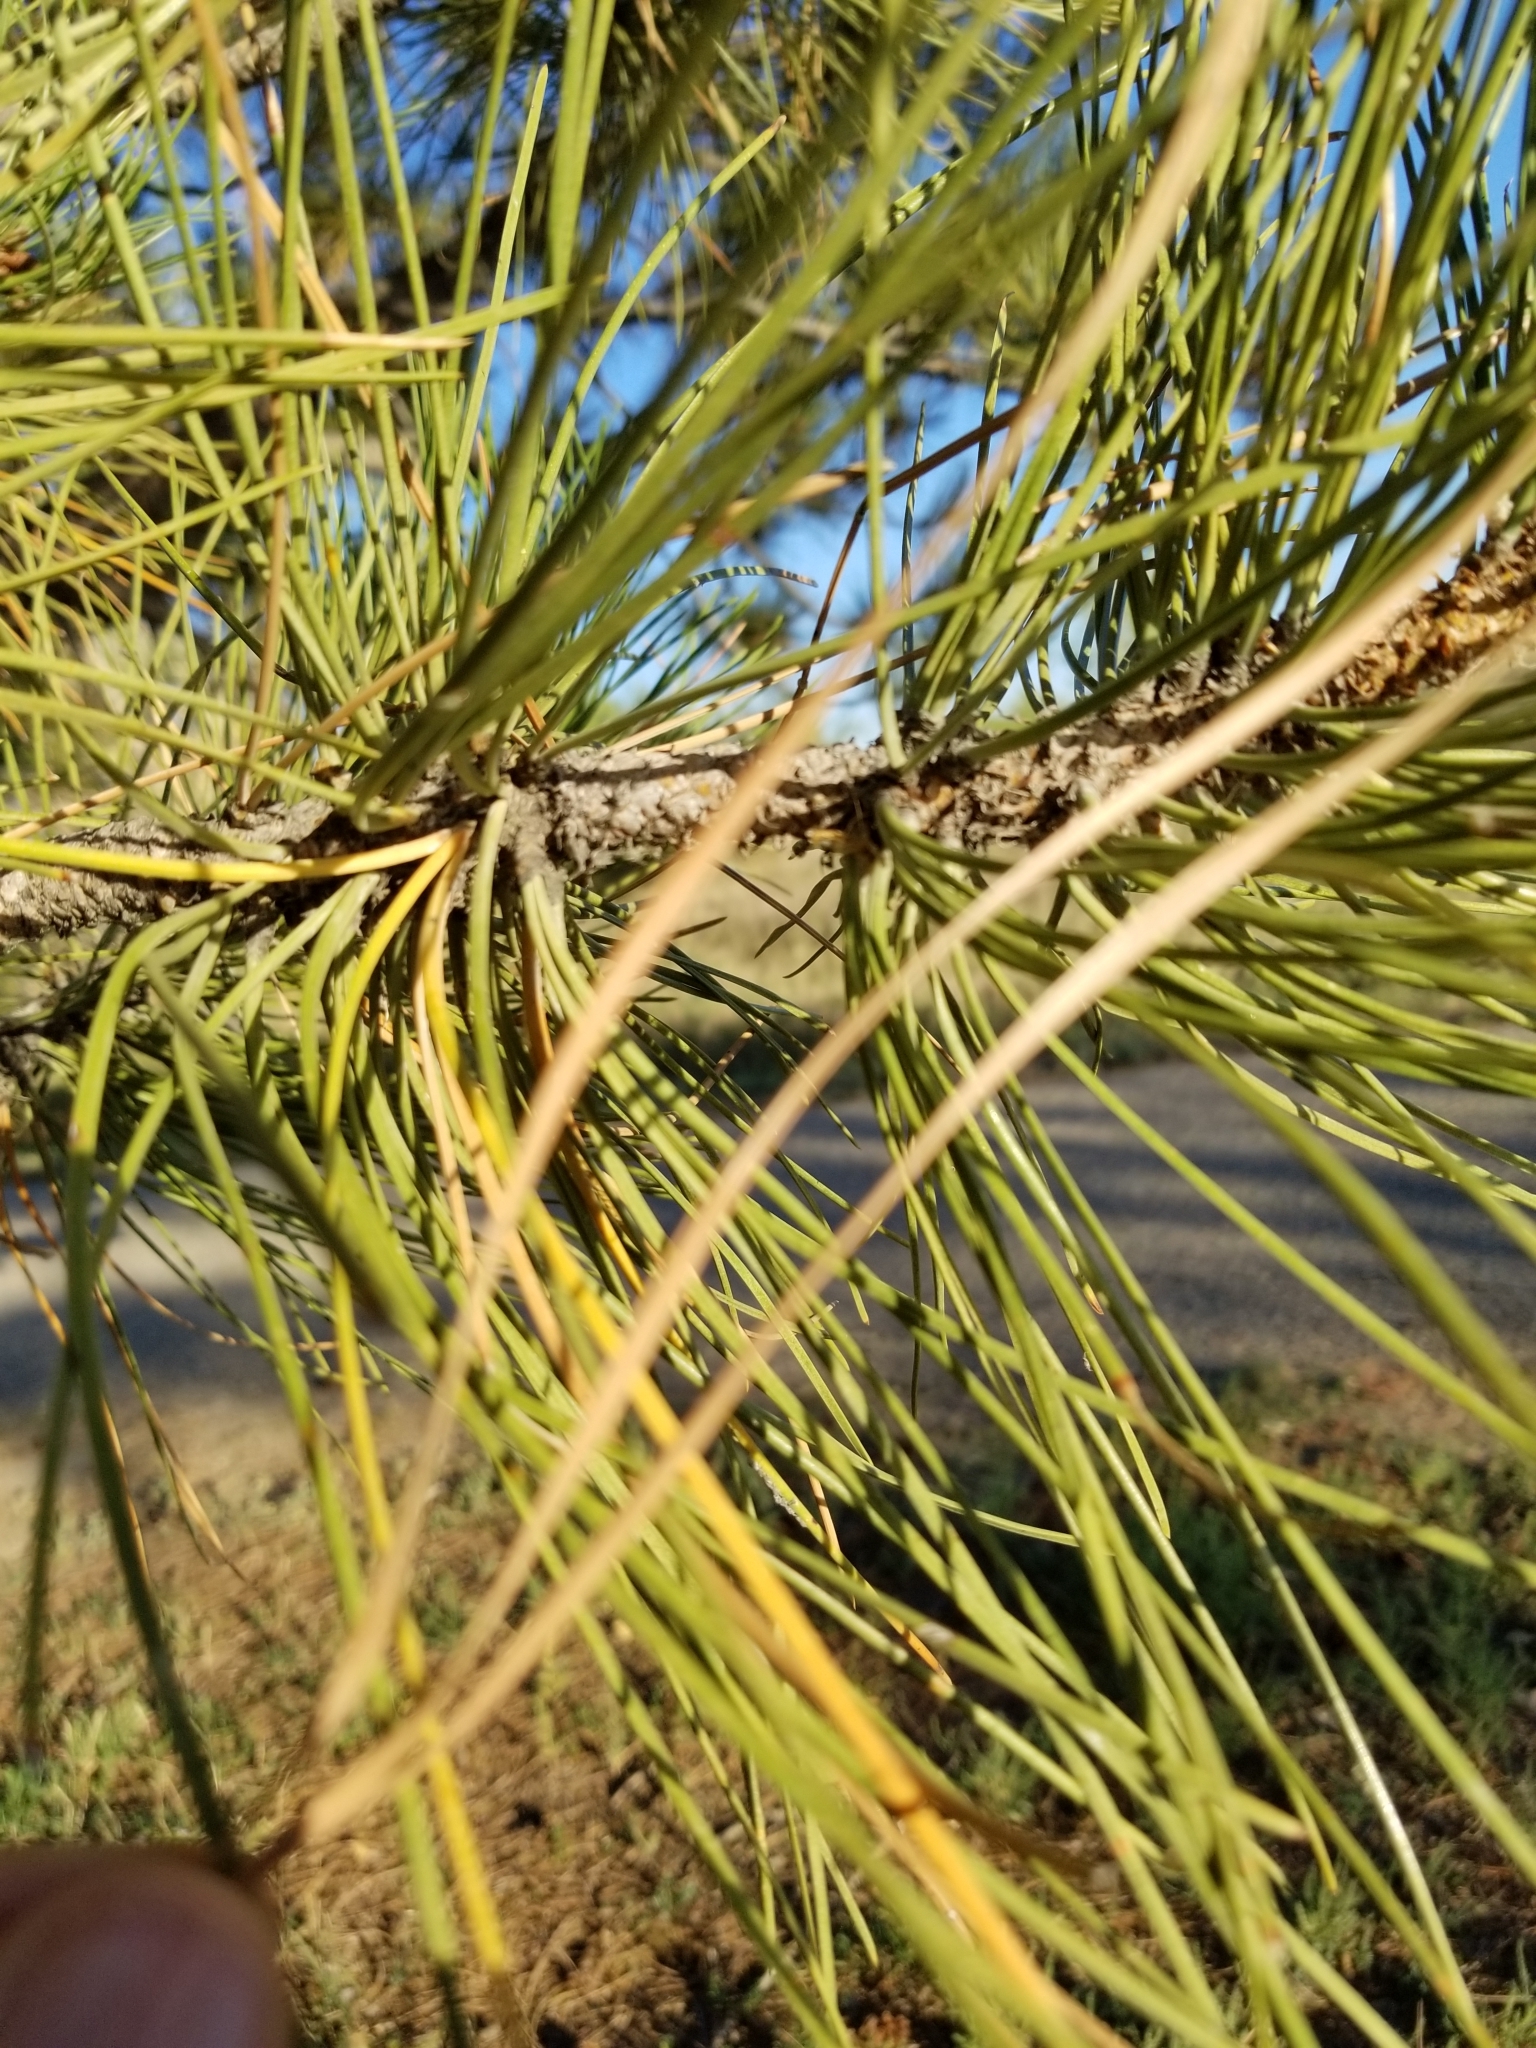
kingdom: Plantae
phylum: Tracheophyta
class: Pinopsida
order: Pinales
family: Pinaceae
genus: Pinus
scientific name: Pinus ponderosa
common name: Western yellow-pine
